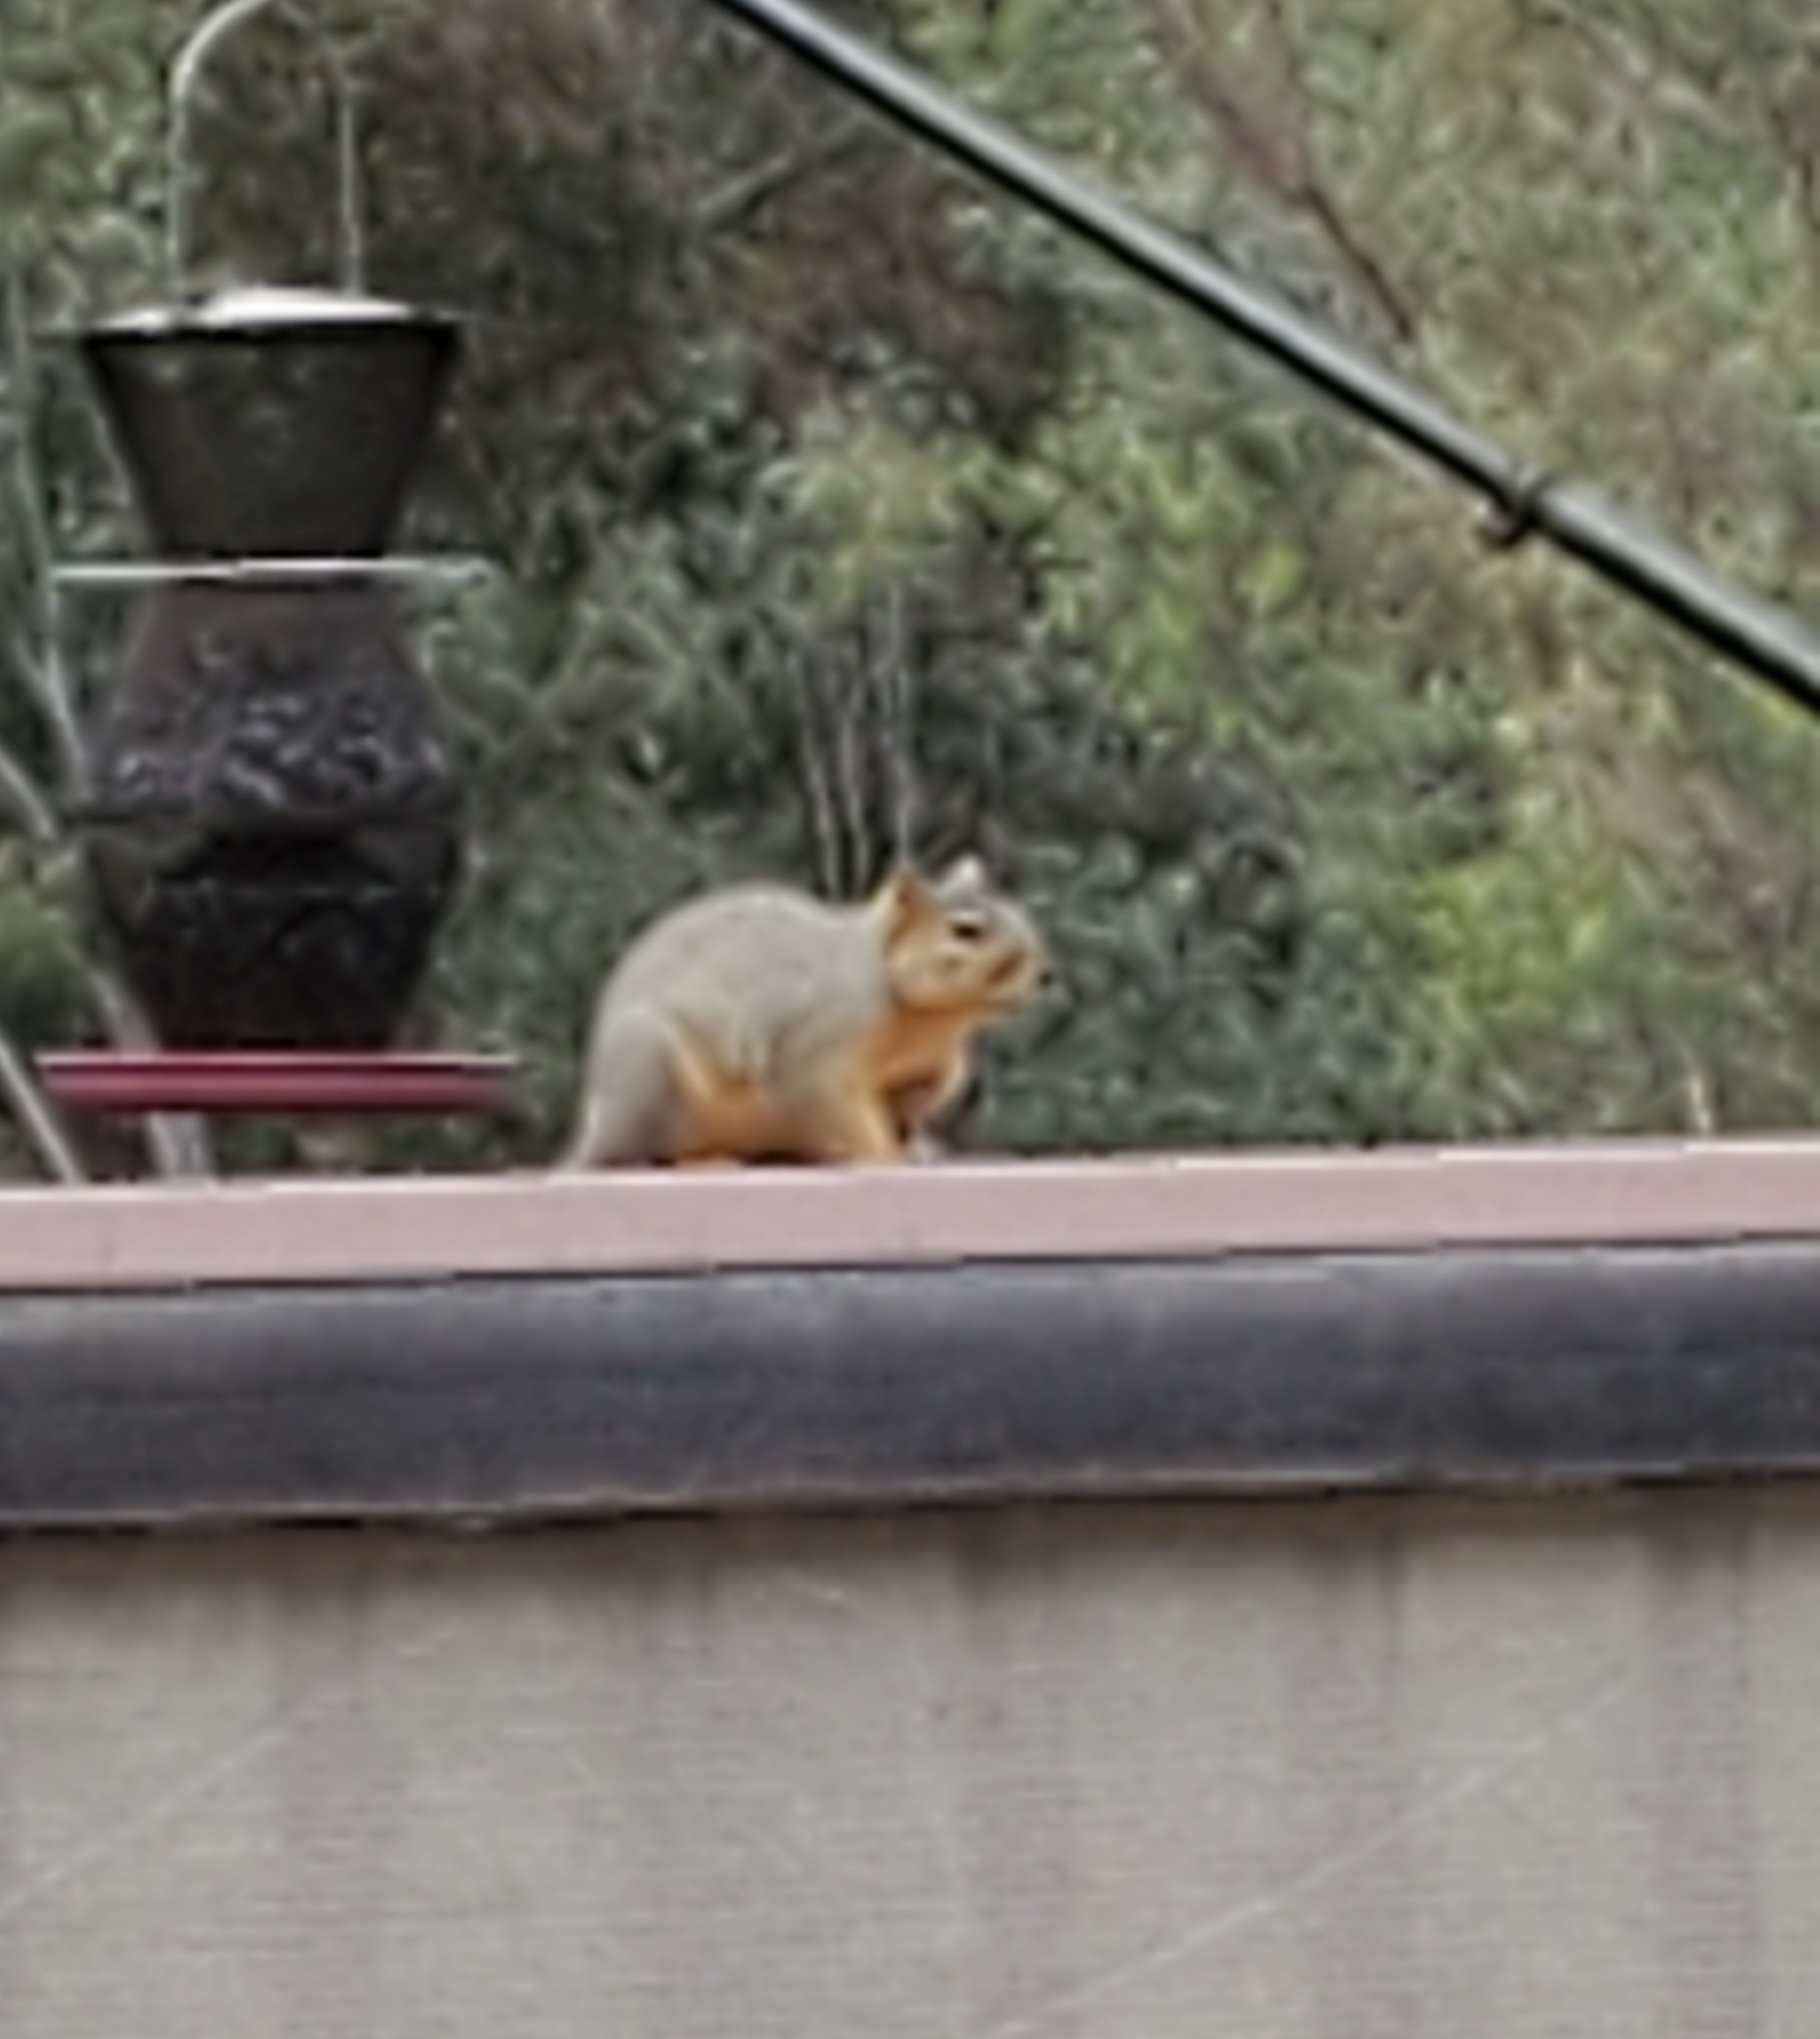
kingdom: Animalia
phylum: Chordata
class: Mammalia
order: Rodentia
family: Sciuridae
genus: Sciurus
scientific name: Sciurus niger
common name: Fox squirrel
